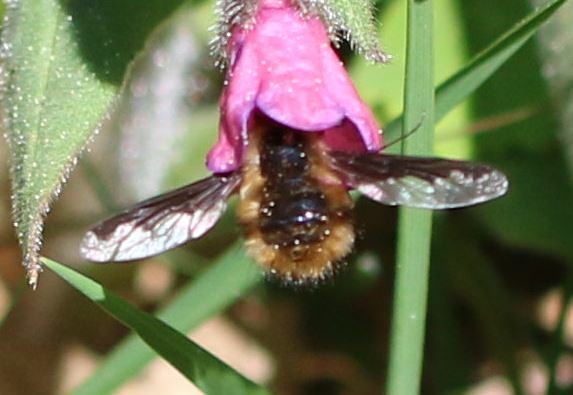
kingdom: Animalia
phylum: Arthropoda
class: Insecta
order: Diptera
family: Bombyliidae
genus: Bombylius
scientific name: Bombylius major
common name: Bee fly
